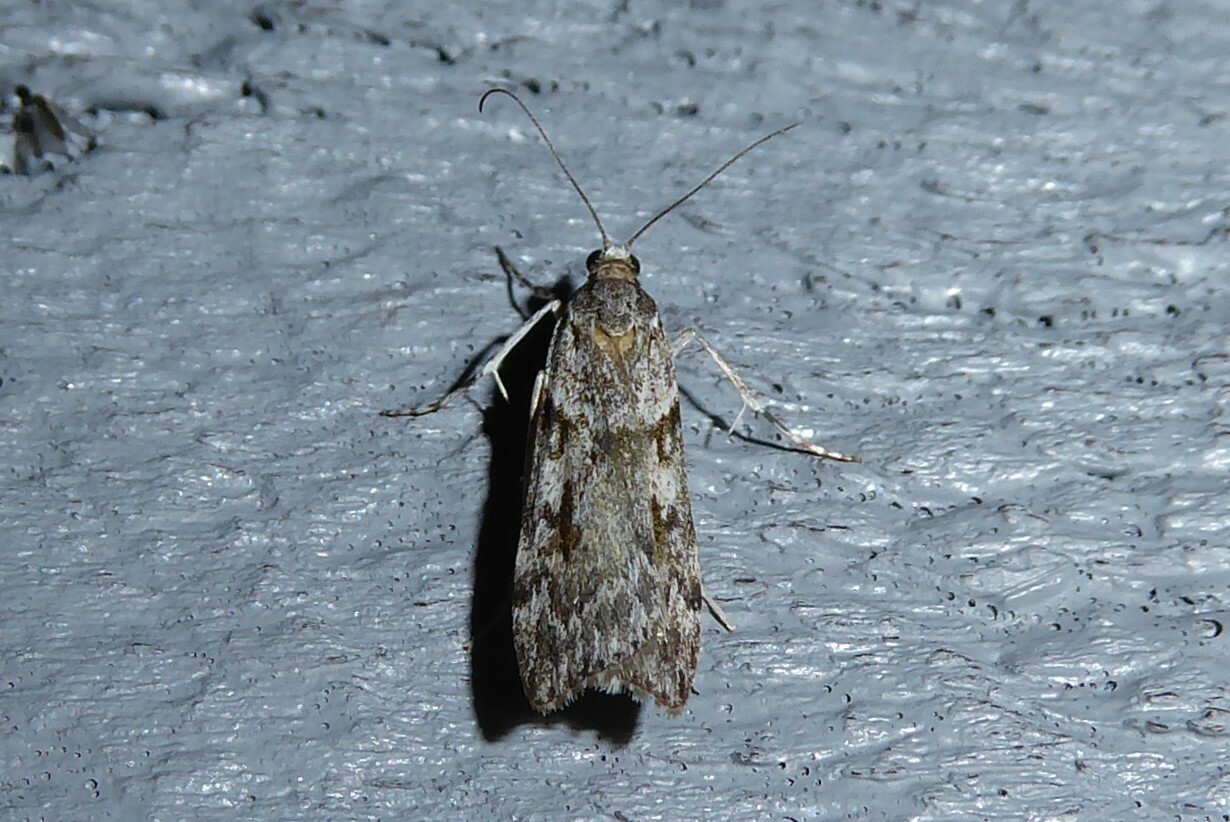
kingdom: Animalia
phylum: Arthropoda
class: Insecta
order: Lepidoptera
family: Crambidae
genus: Scoparia
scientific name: Scoparia halopis
